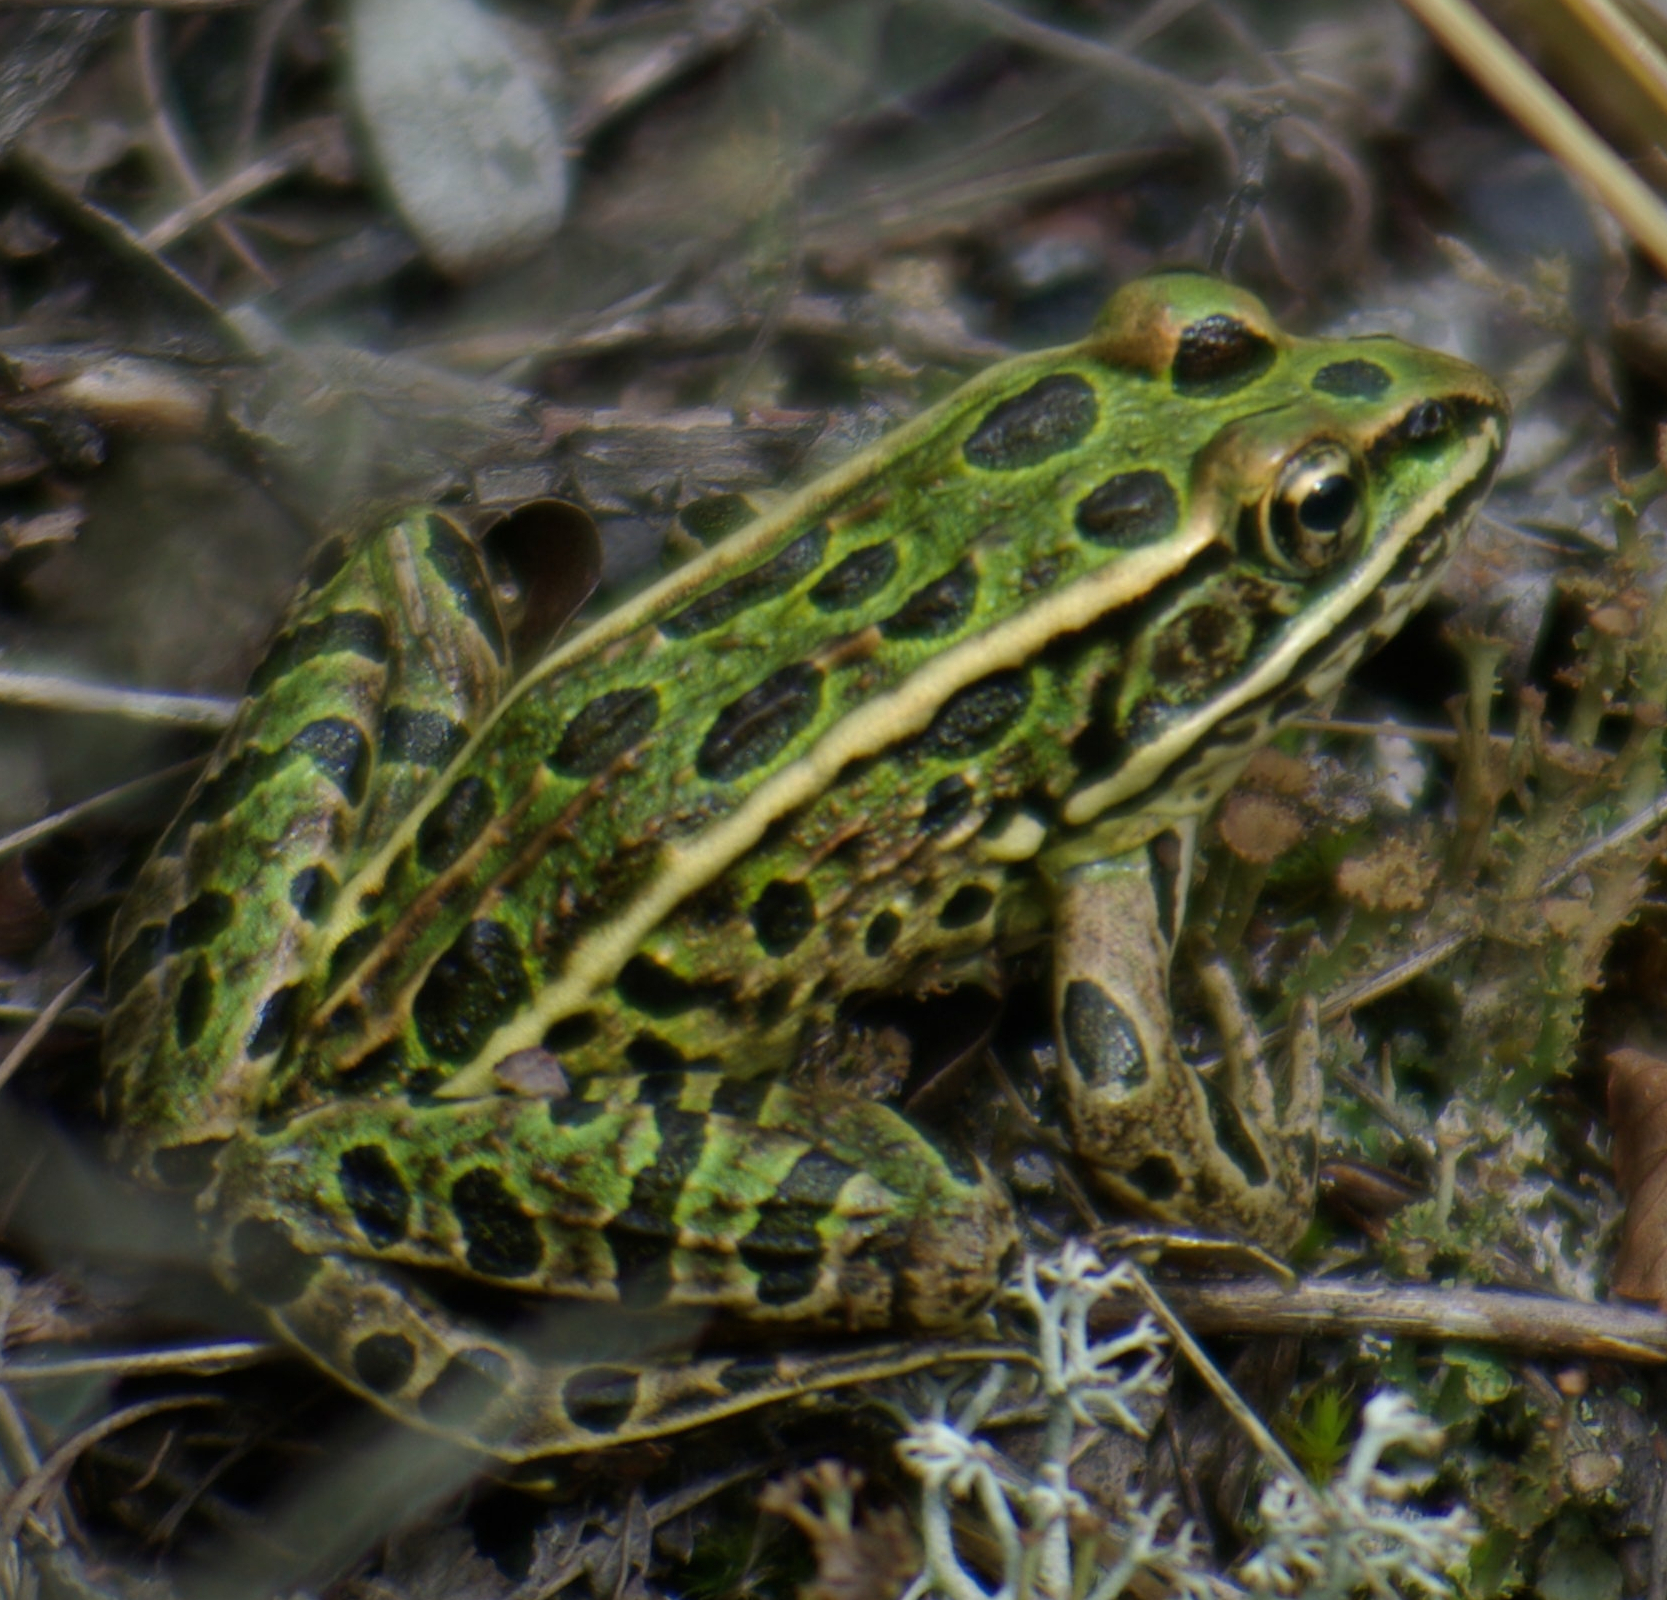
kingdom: Animalia
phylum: Chordata
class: Amphibia
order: Anura
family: Ranidae
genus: Lithobates
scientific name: Lithobates pipiens
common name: Northern leopard frog
